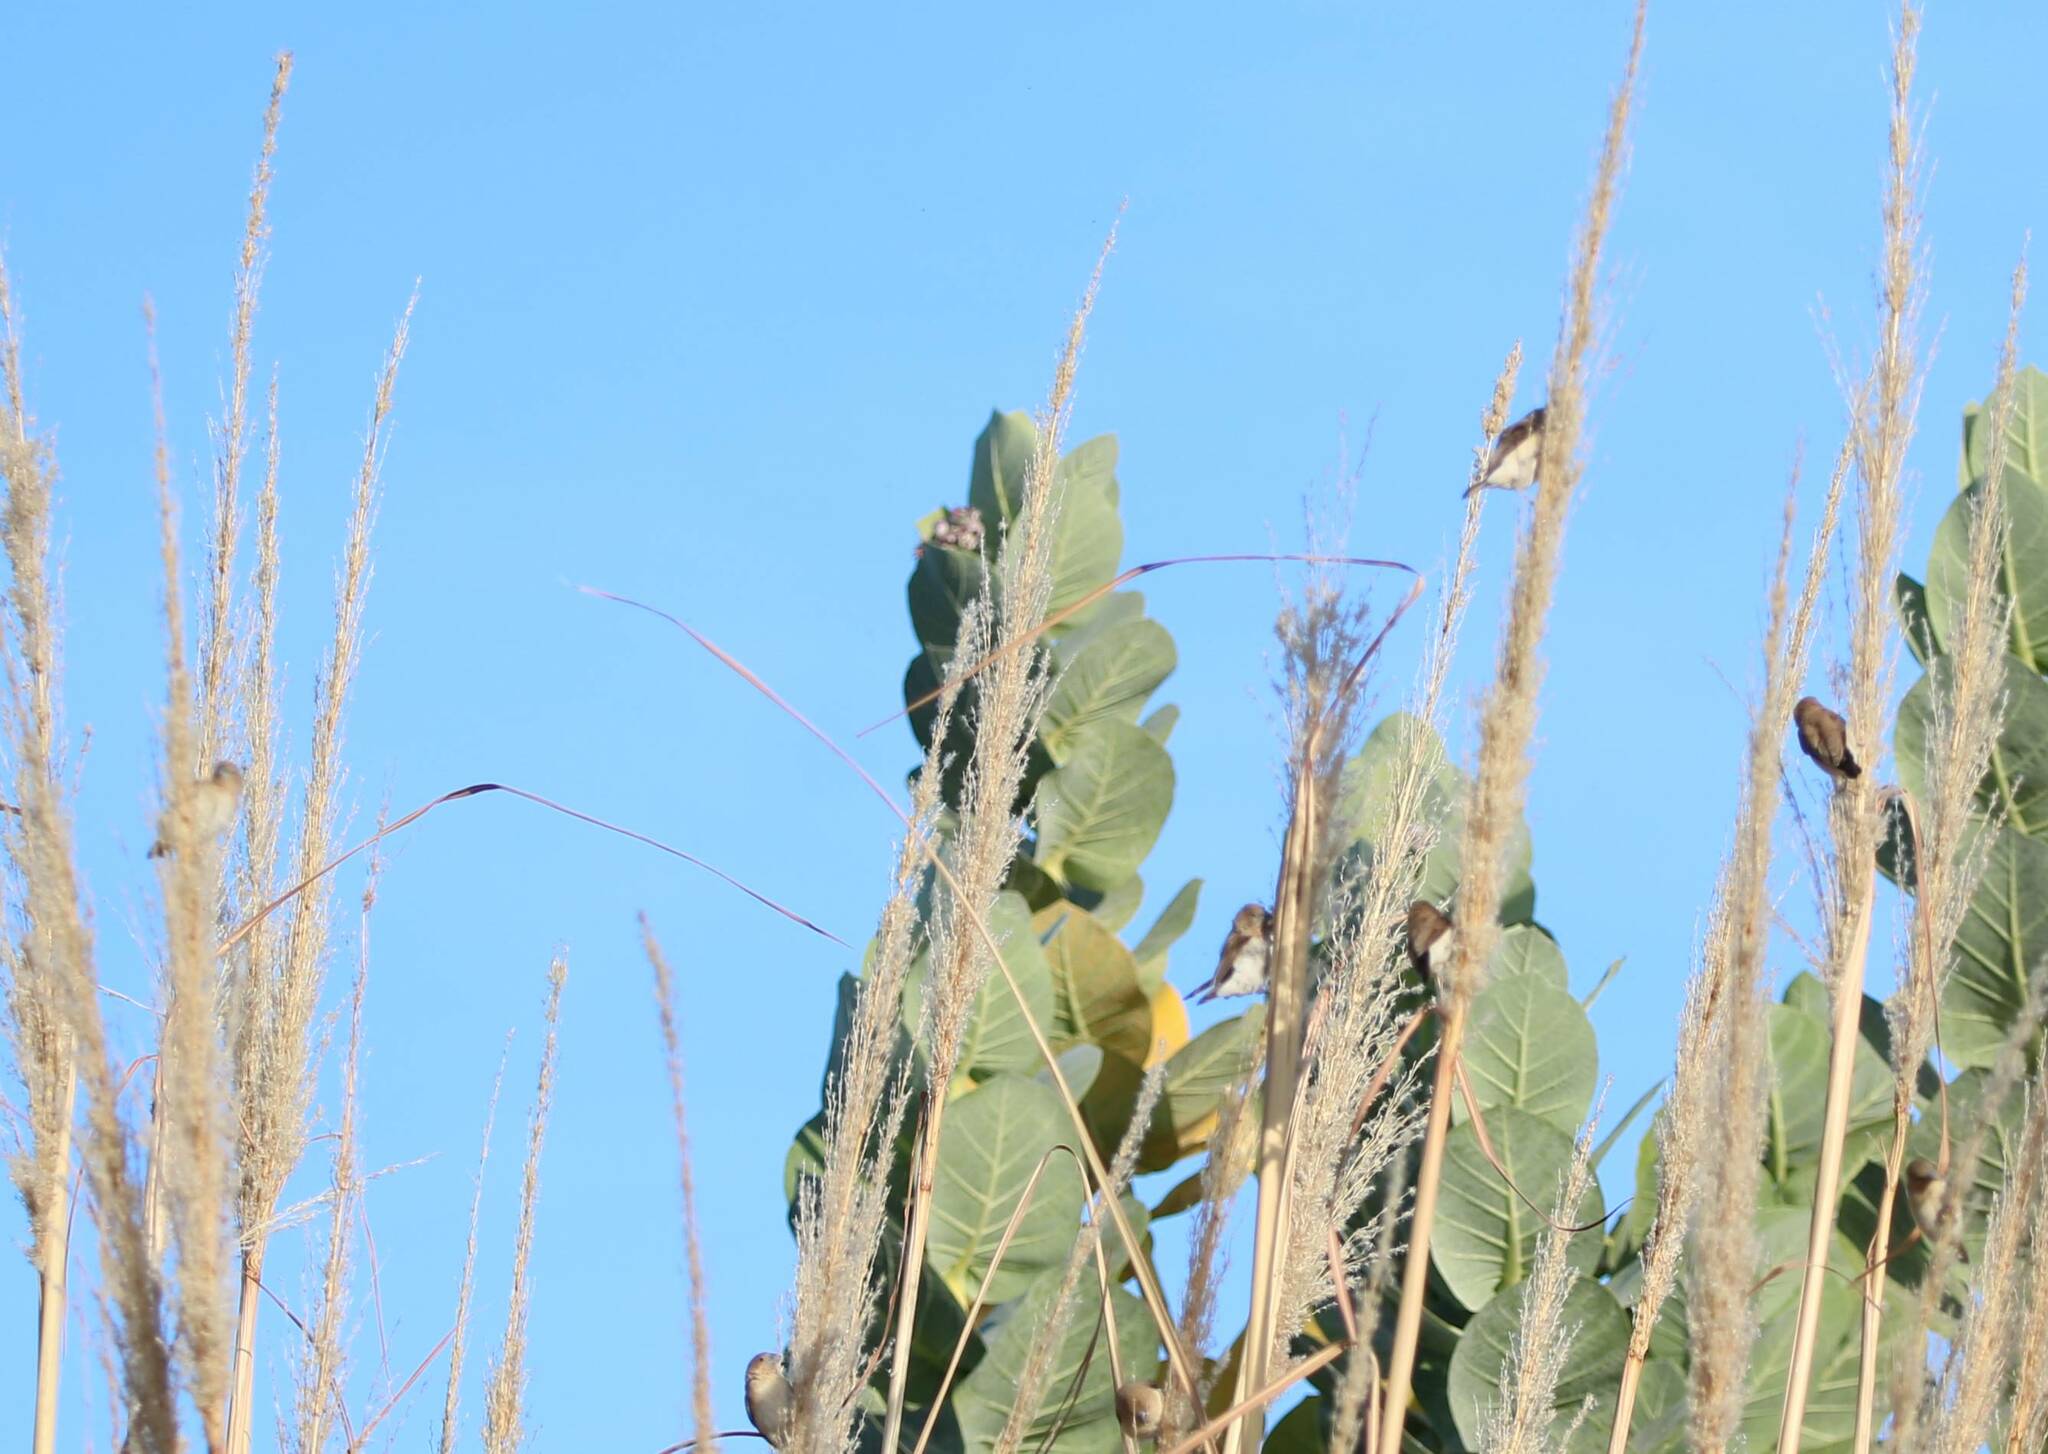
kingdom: Plantae
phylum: Tracheophyta
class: Magnoliopsida
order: Gentianales
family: Apocynaceae
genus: Calotropis
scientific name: Calotropis procera
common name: Roostertree
